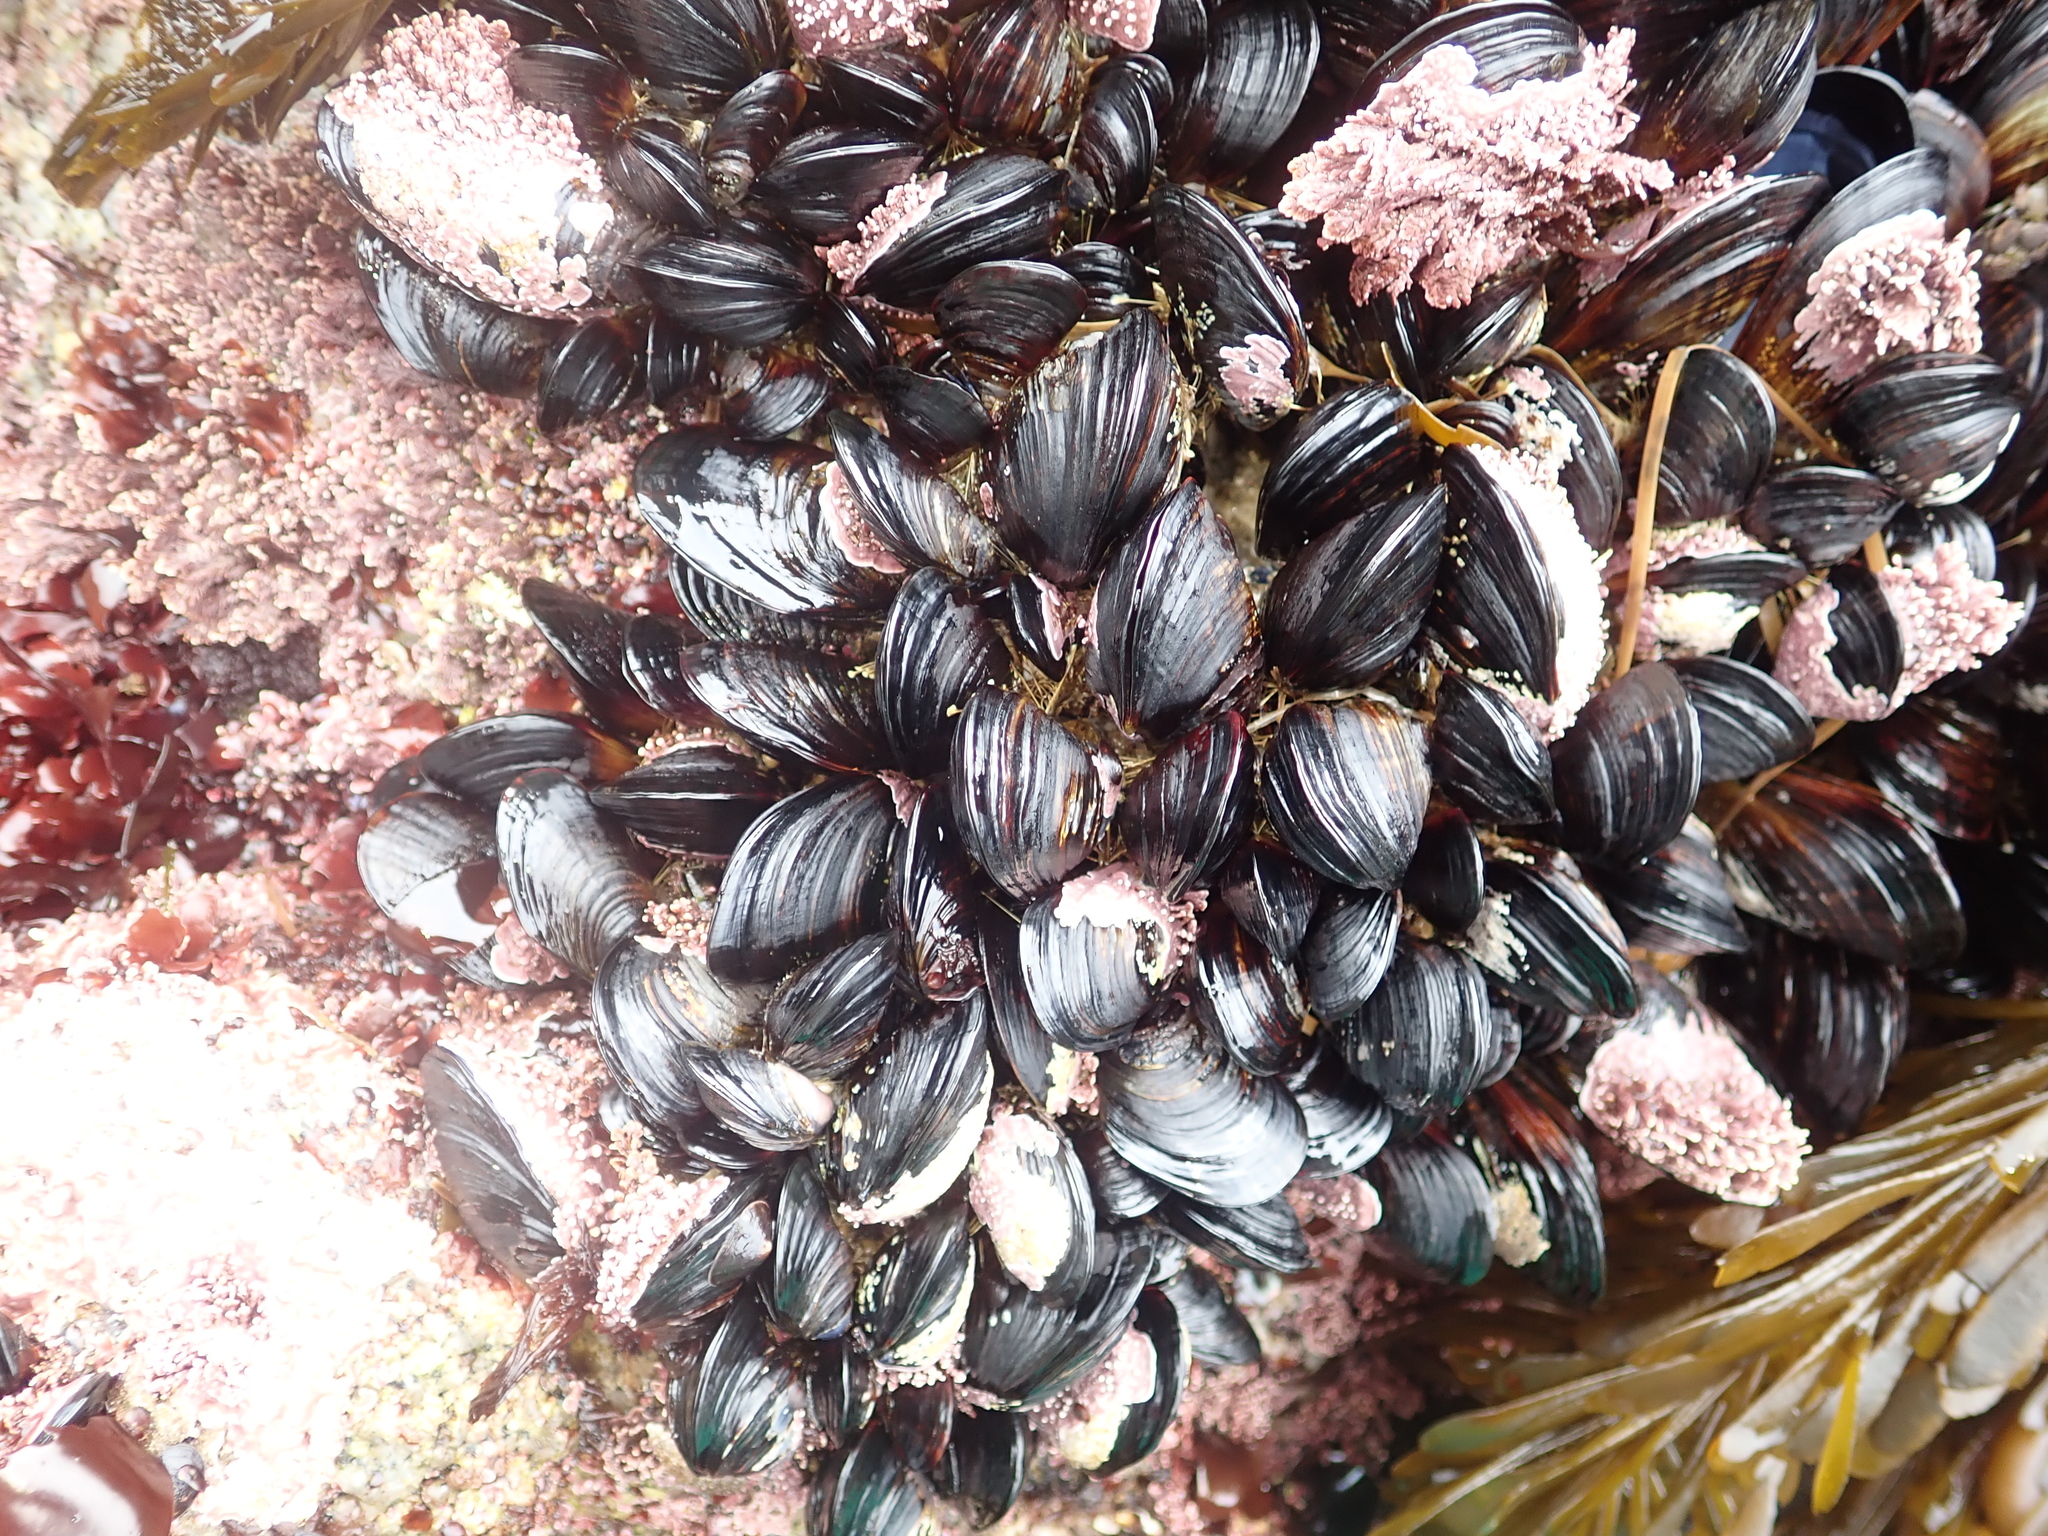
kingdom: Animalia
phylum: Mollusca
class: Bivalvia
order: Mytilida
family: Mytilidae
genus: Mytilus
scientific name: Mytilus californianus
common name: California mussel
